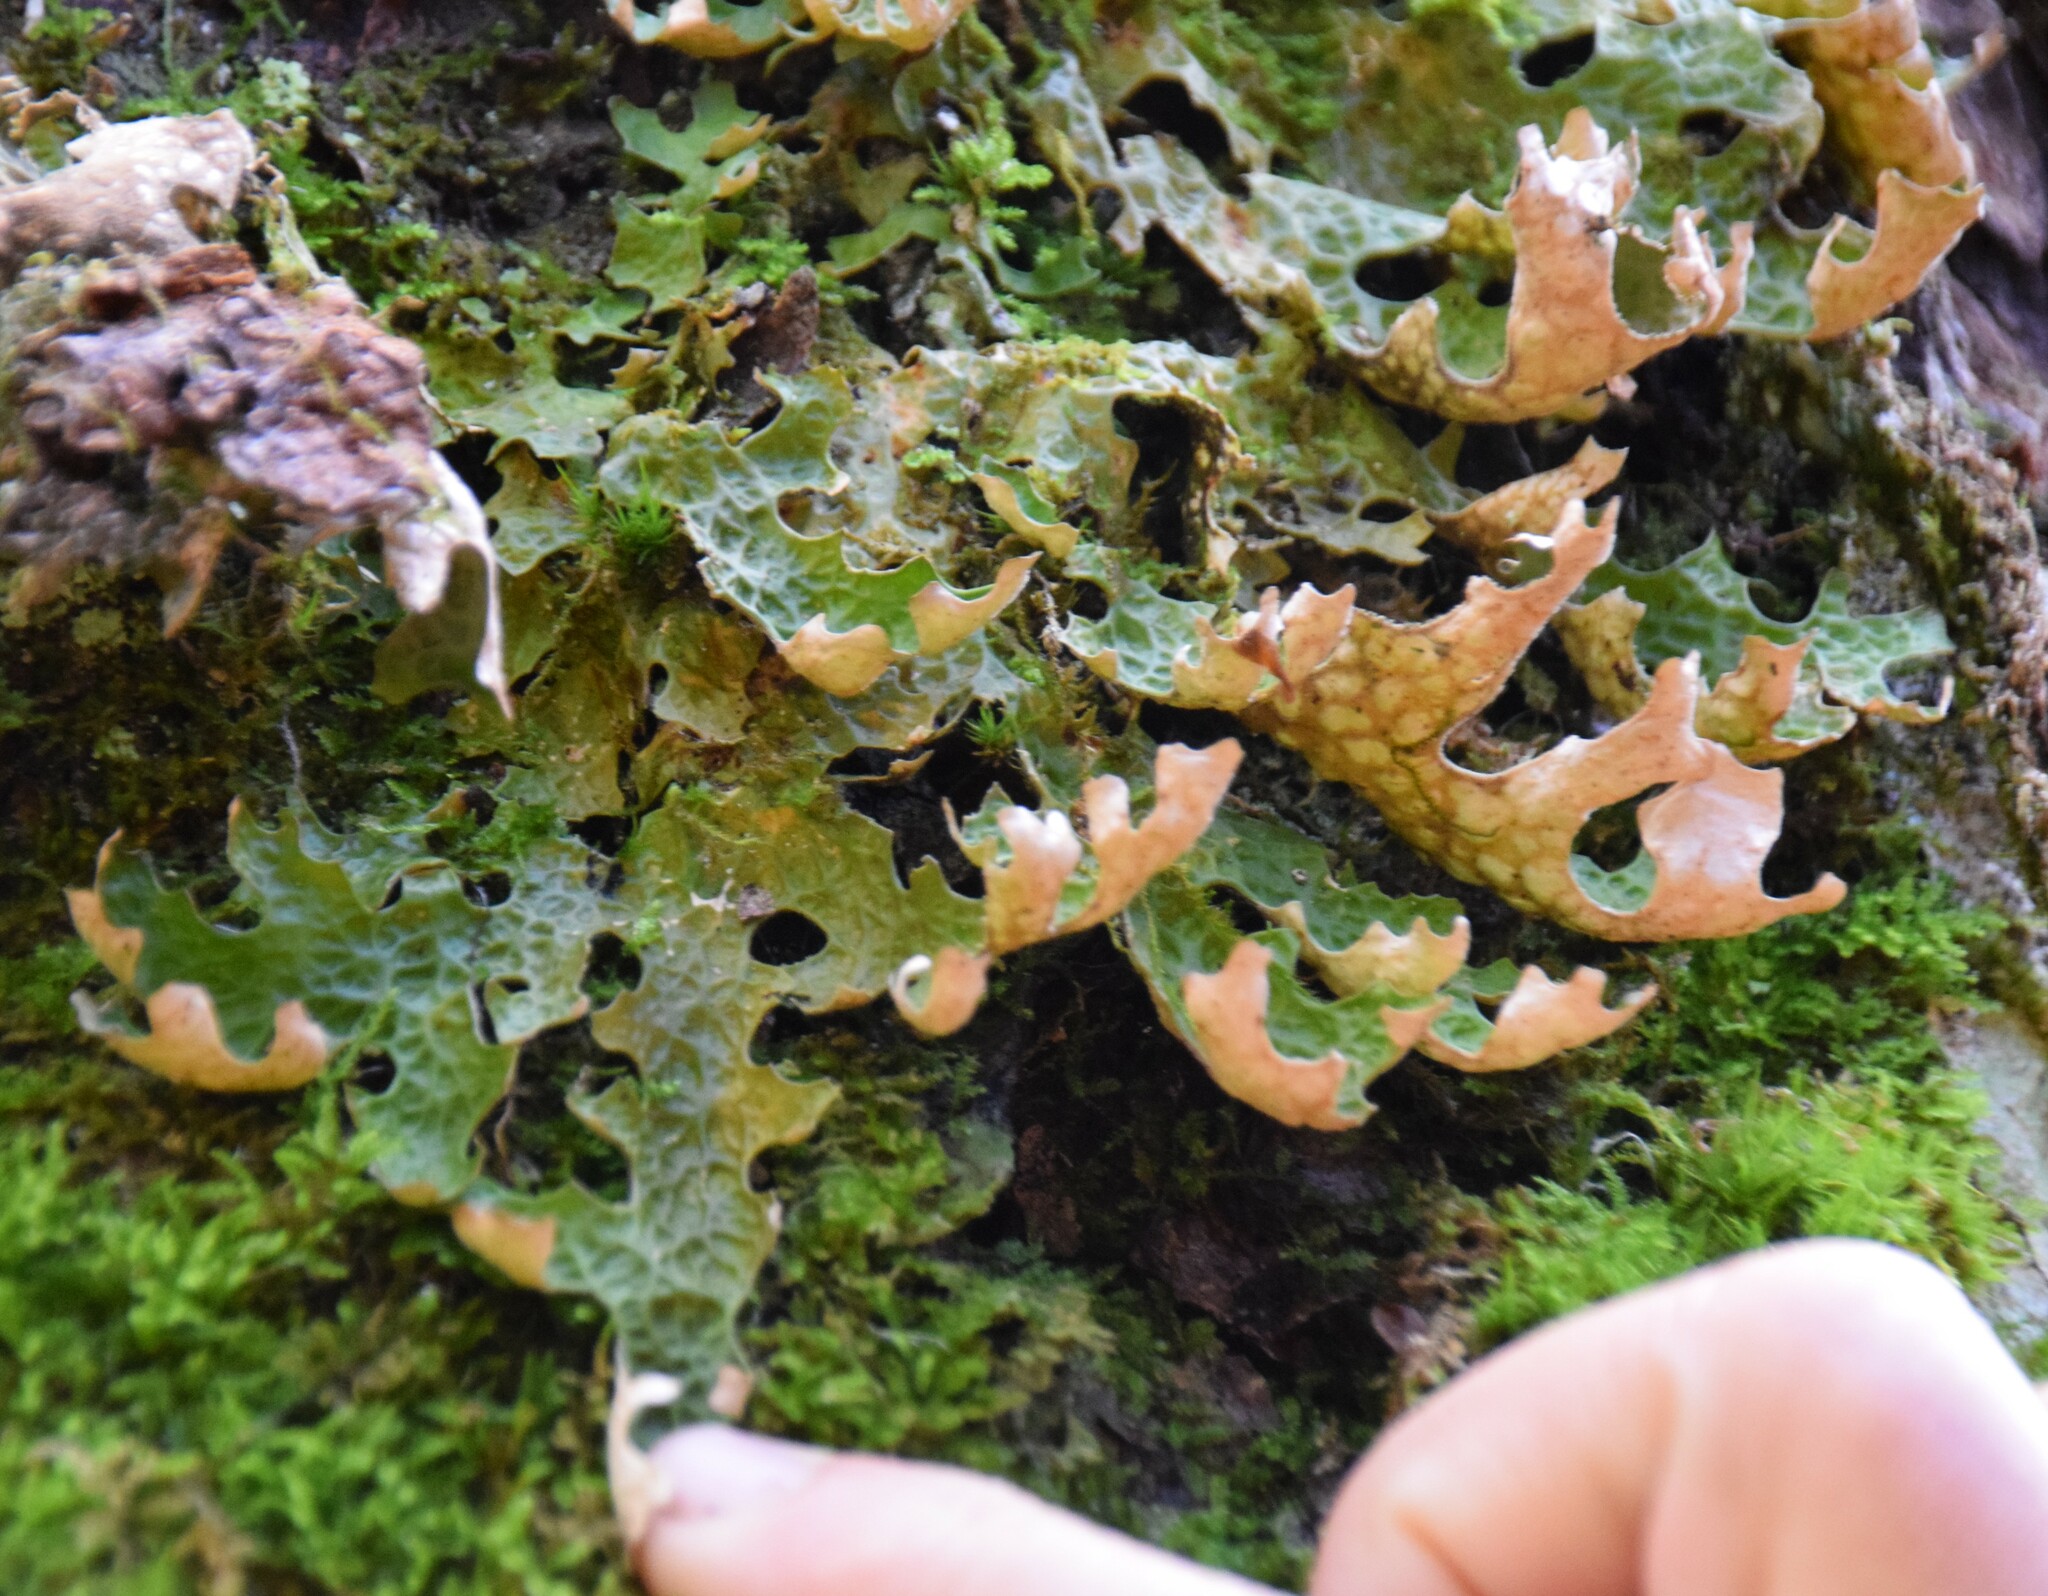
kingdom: Fungi
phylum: Ascomycota
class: Lecanoromycetes
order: Peltigerales
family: Lobariaceae
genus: Lobaria
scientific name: Lobaria pulmonaria
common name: Lungwort
